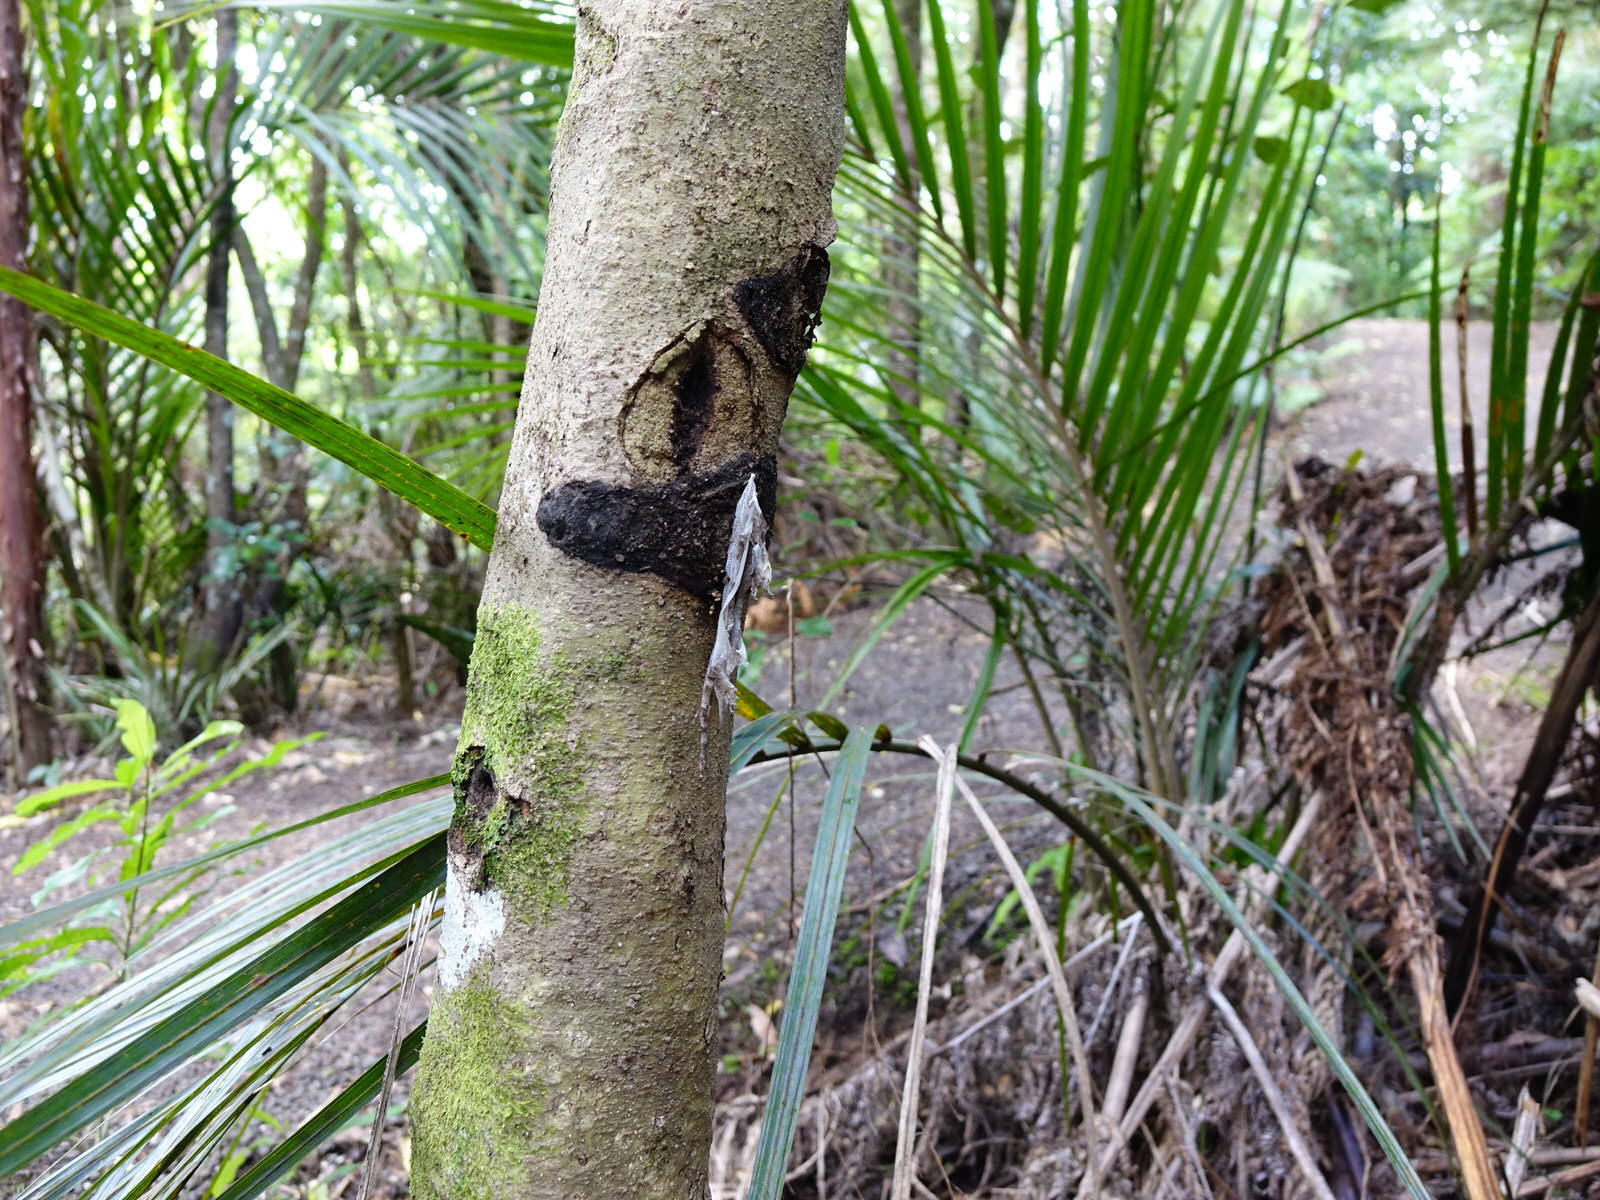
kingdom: Animalia
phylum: Chordata
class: Squamata
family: Diplodactylidae
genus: Mokopirirakau
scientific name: Mokopirirakau granulatus
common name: Forest gecko
